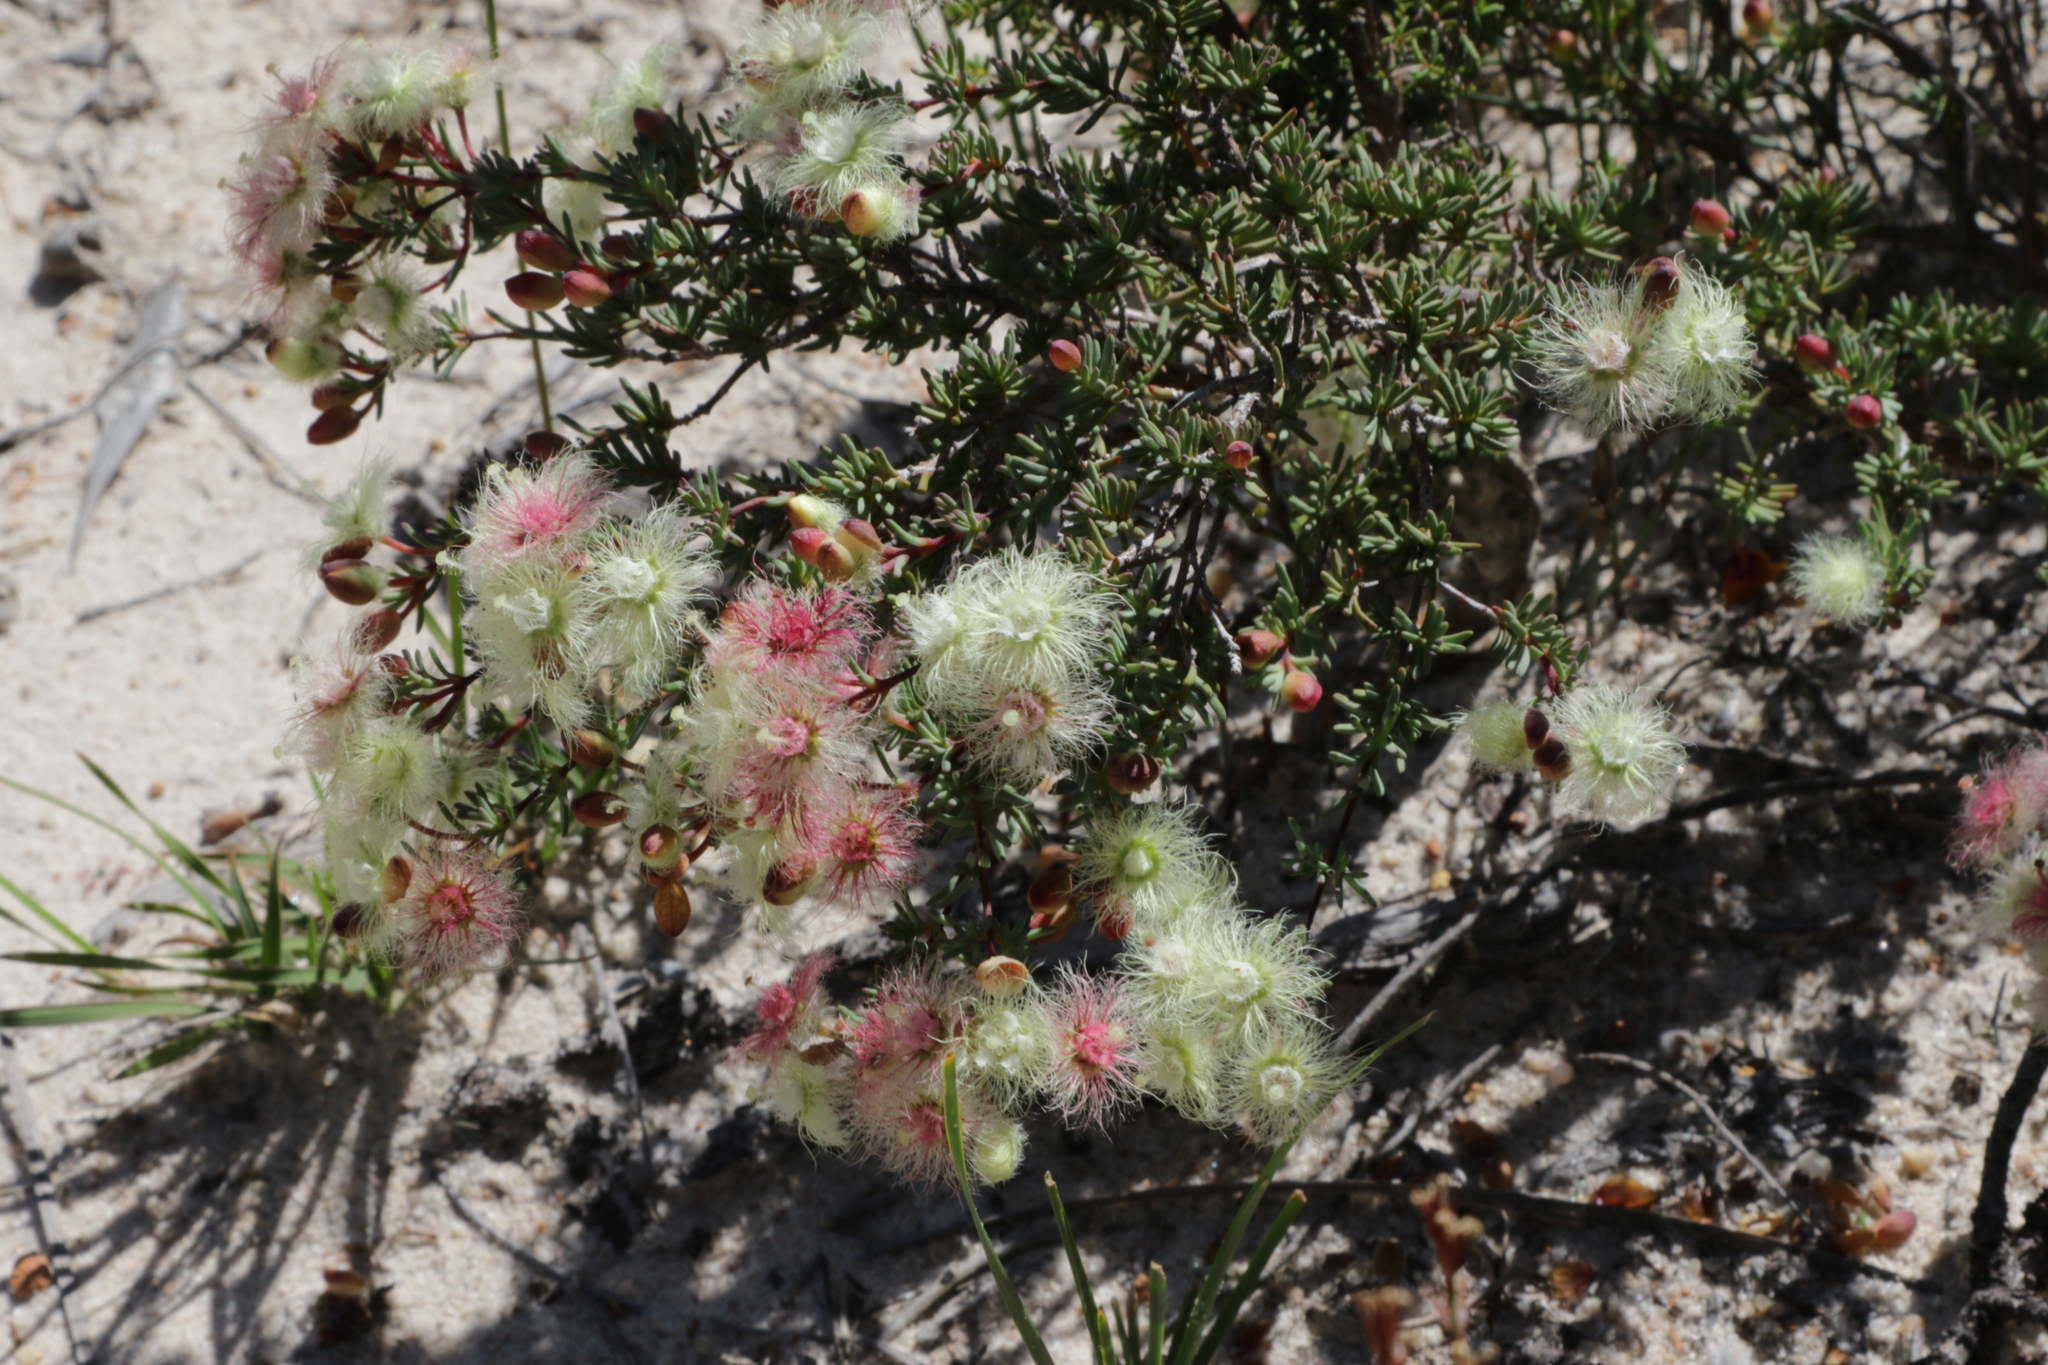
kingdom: Plantae
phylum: Tracheophyta
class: Magnoliopsida
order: Myrtales
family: Myrtaceae
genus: Verticordia
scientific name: Verticordia huegelii
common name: Variegate feather-flower
